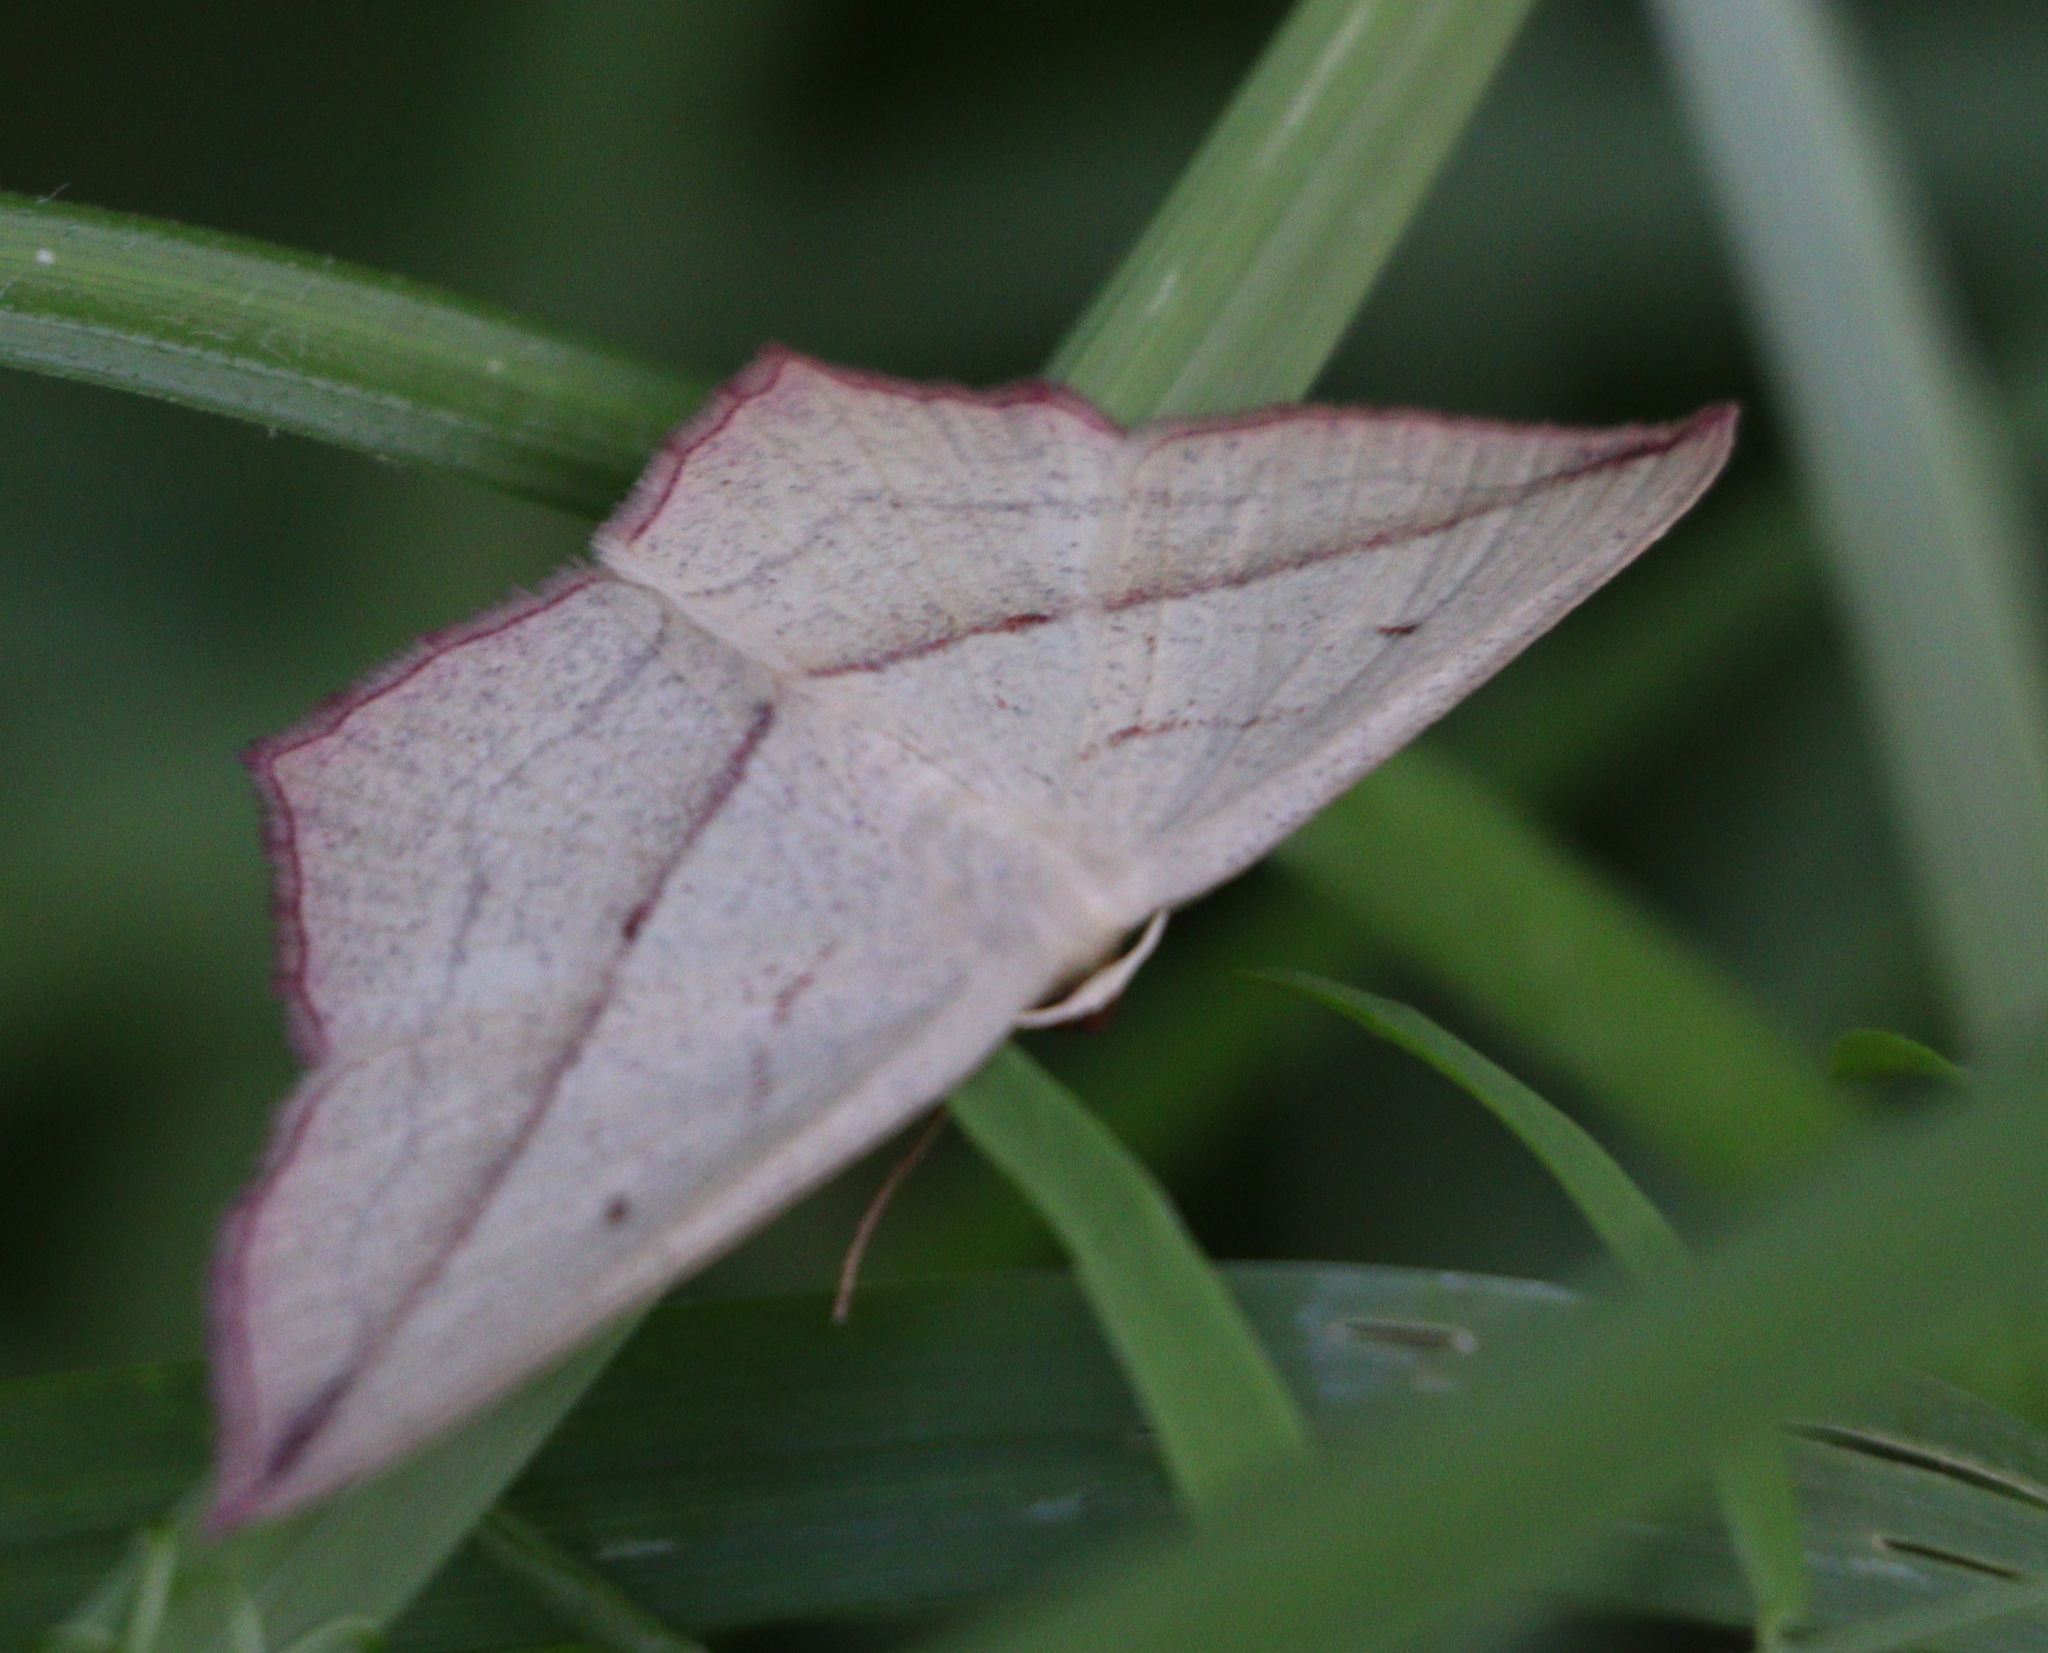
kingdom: Animalia
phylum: Arthropoda
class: Insecta
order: Lepidoptera
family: Geometridae
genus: Timandra
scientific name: Timandra comae
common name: Blood-vein
